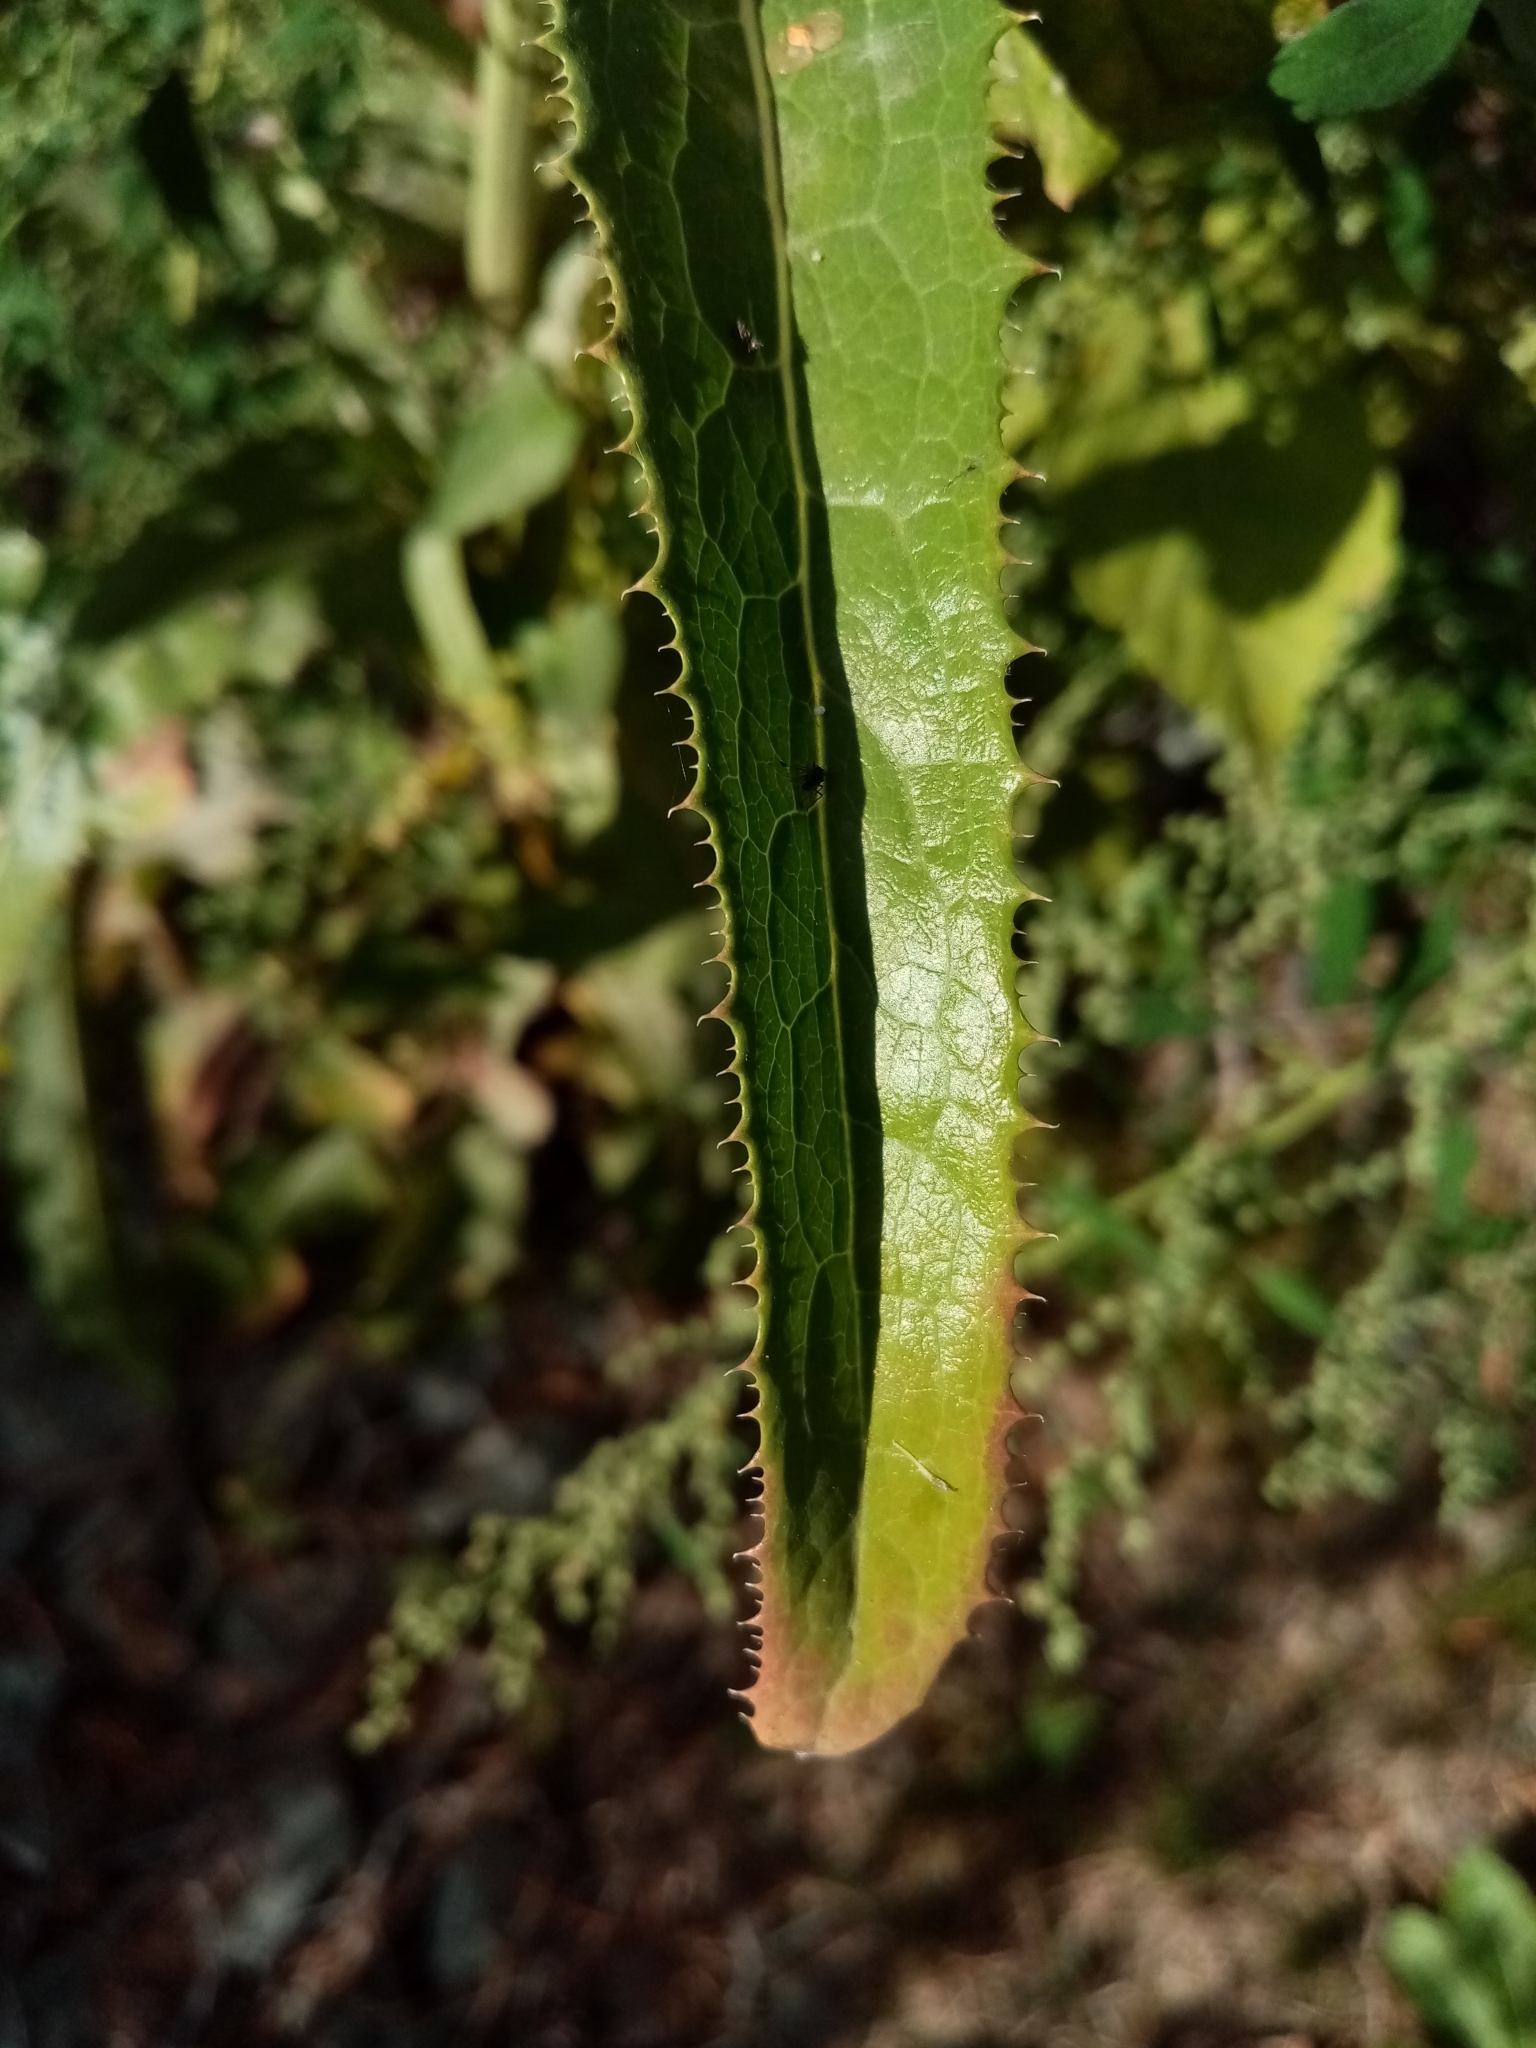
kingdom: Plantae
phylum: Tracheophyta
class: Magnoliopsida
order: Asterales
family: Asteraceae
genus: Sonchus
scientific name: Sonchus arvensis
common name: Perennial sow-thistle
